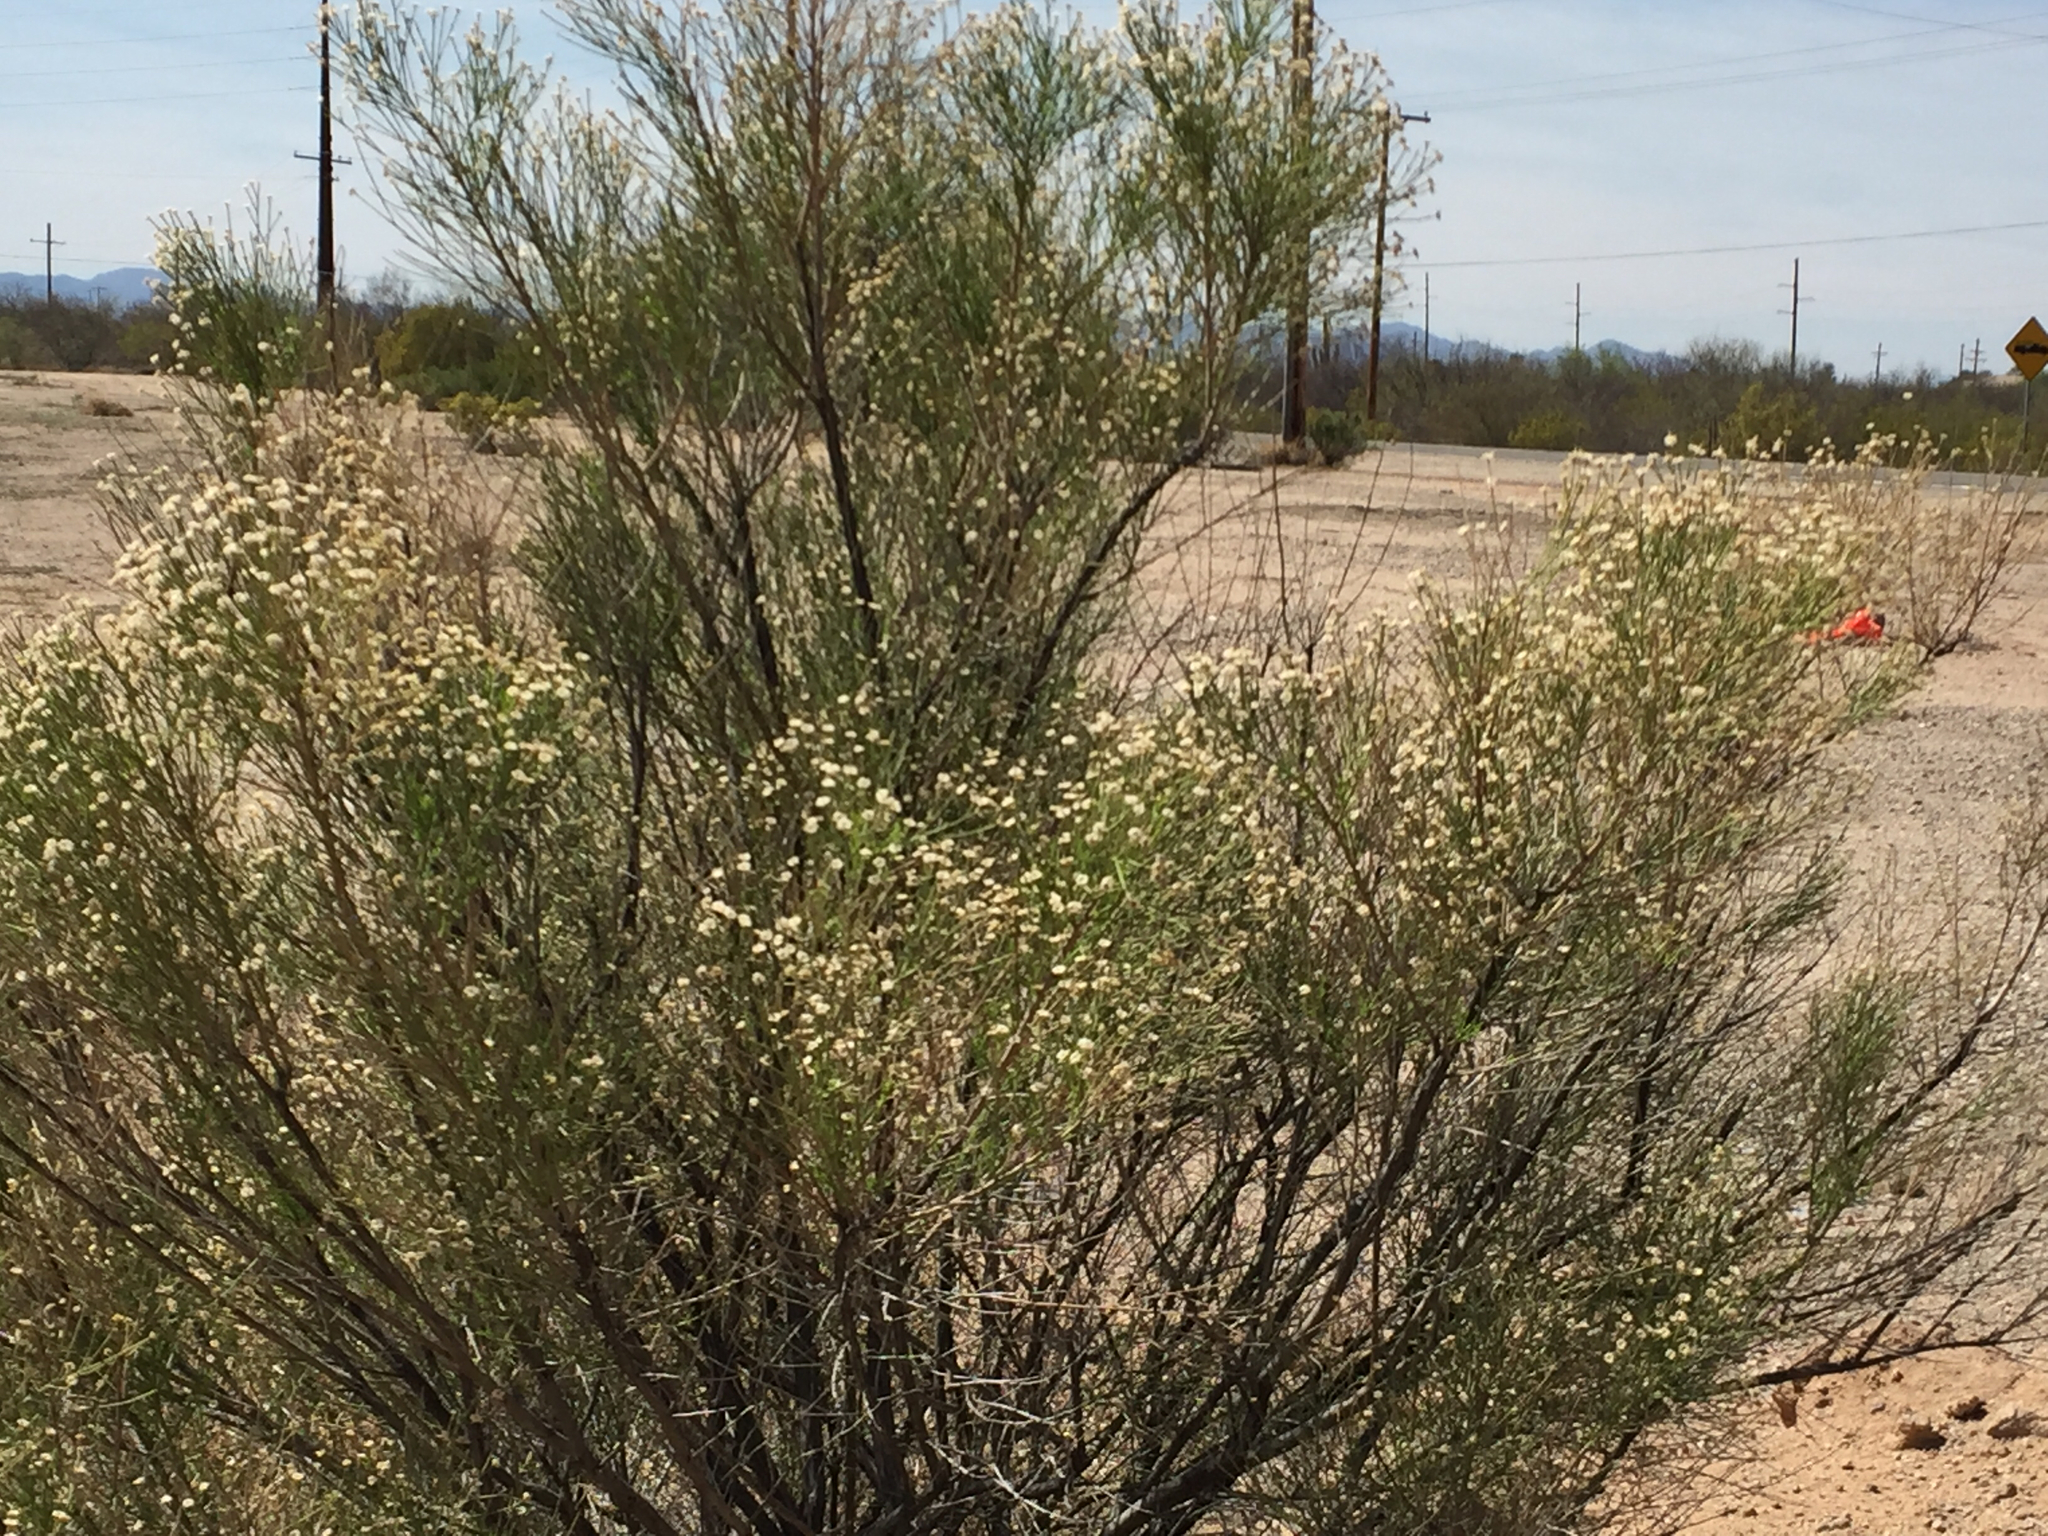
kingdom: Plantae
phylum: Tracheophyta
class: Magnoliopsida
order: Asterales
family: Asteraceae
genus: Baccharis
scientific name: Baccharis sarothroides
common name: Desert-broom
